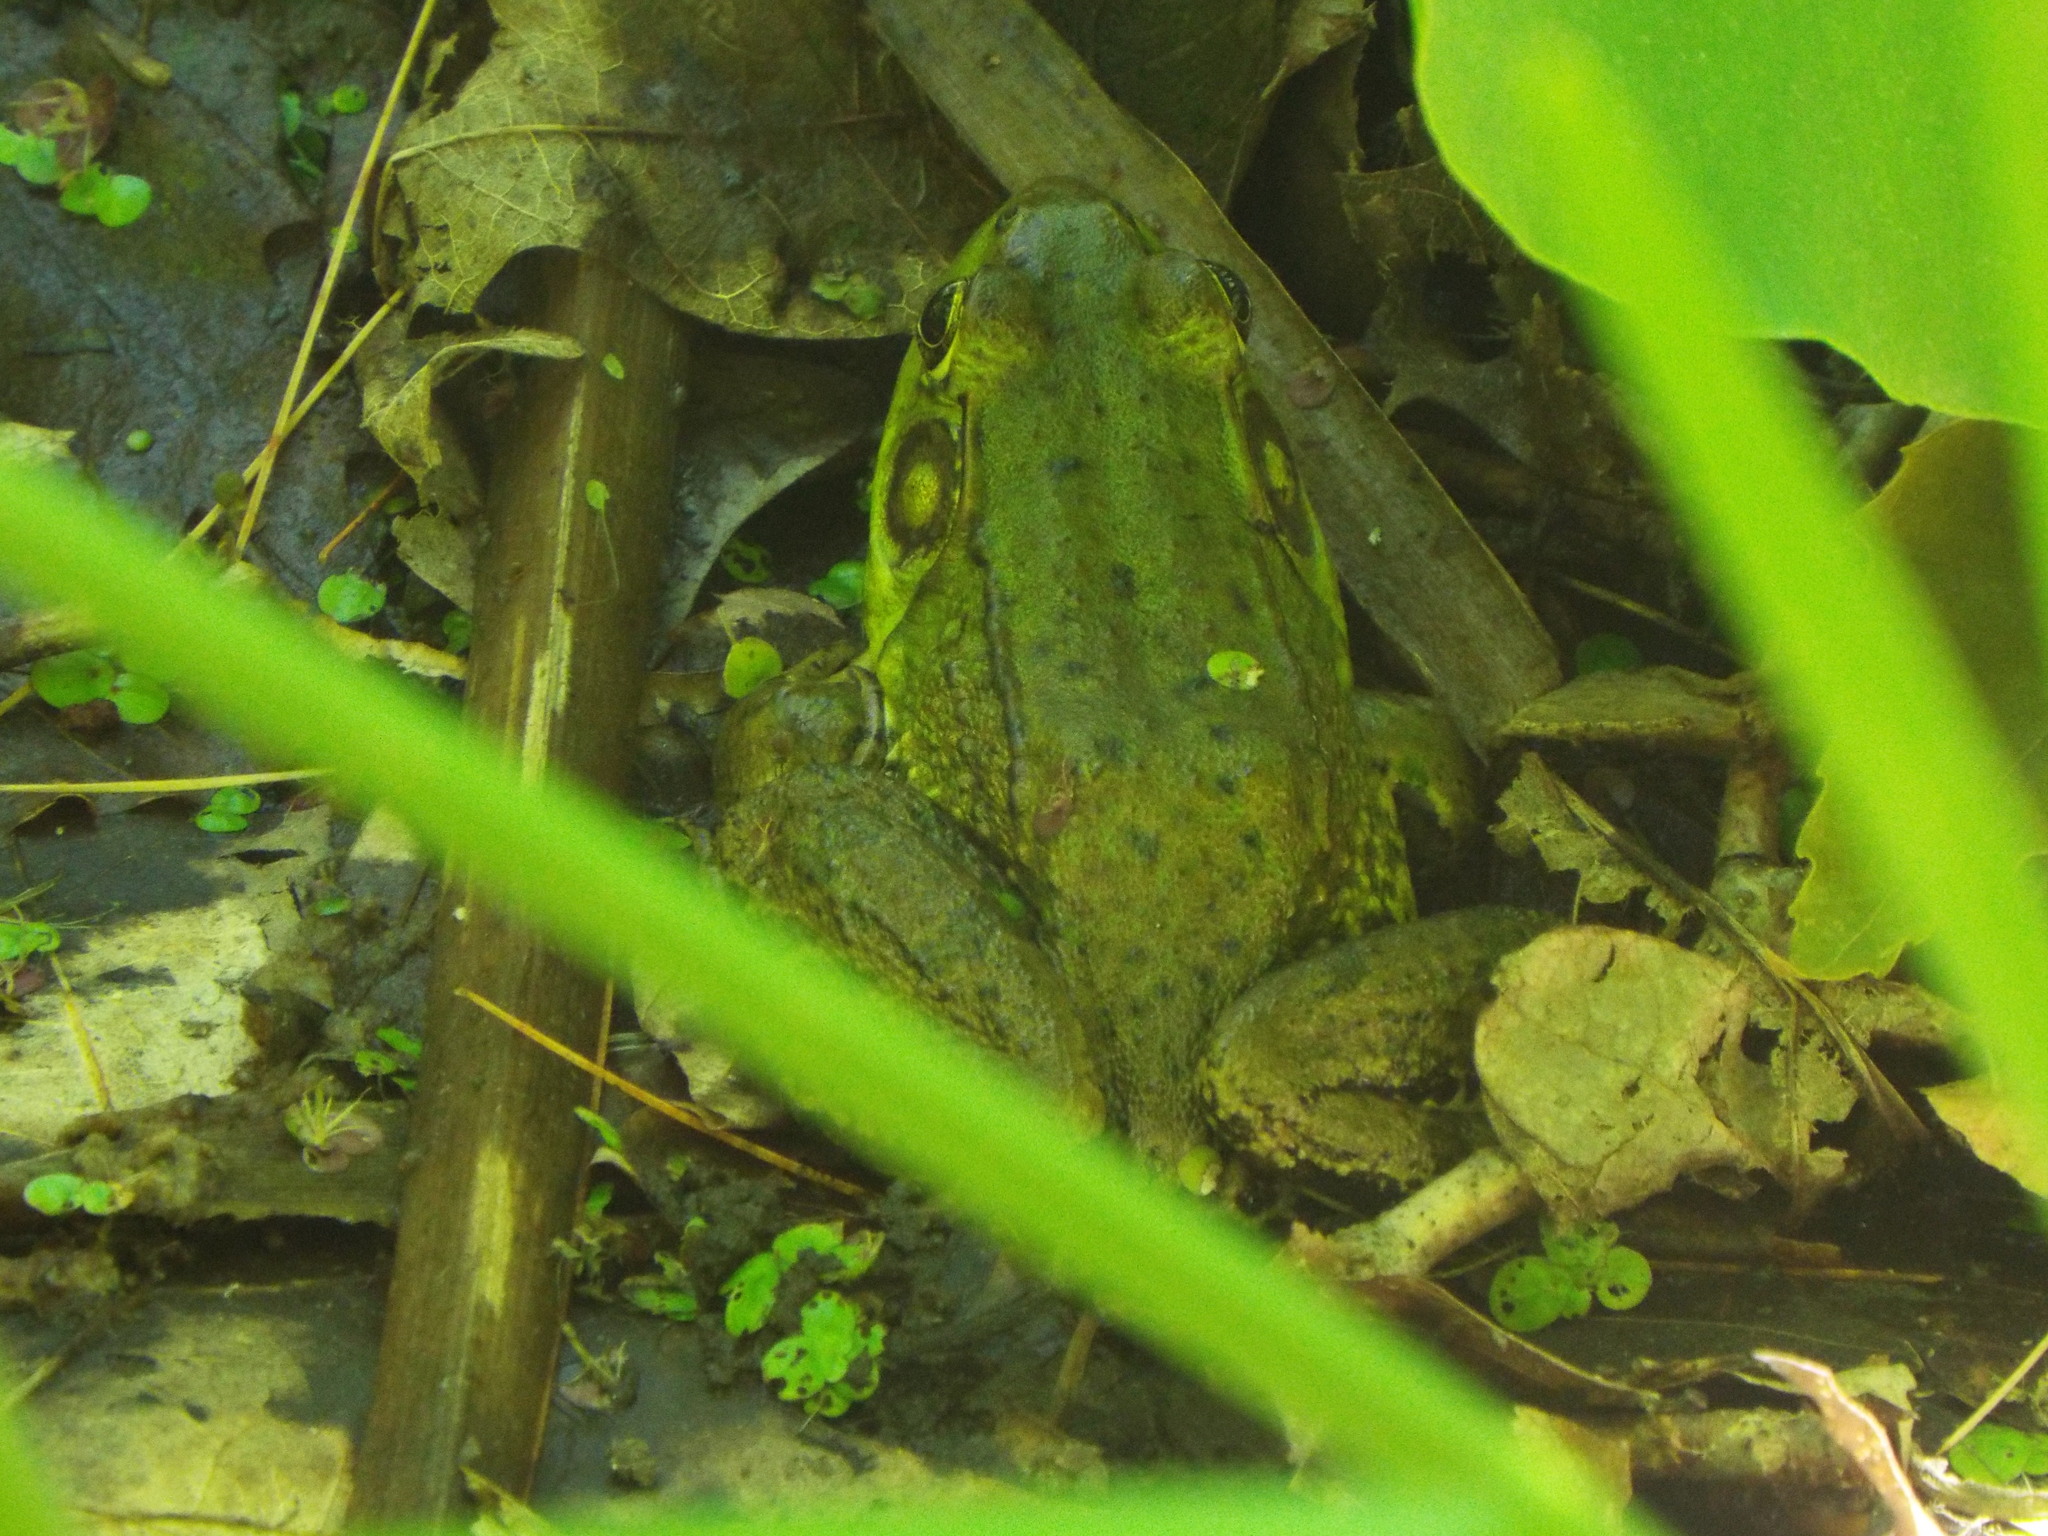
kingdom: Animalia
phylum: Chordata
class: Amphibia
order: Anura
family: Ranidae
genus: Lithobates
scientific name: Lithobates clamitans
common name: Green frog
